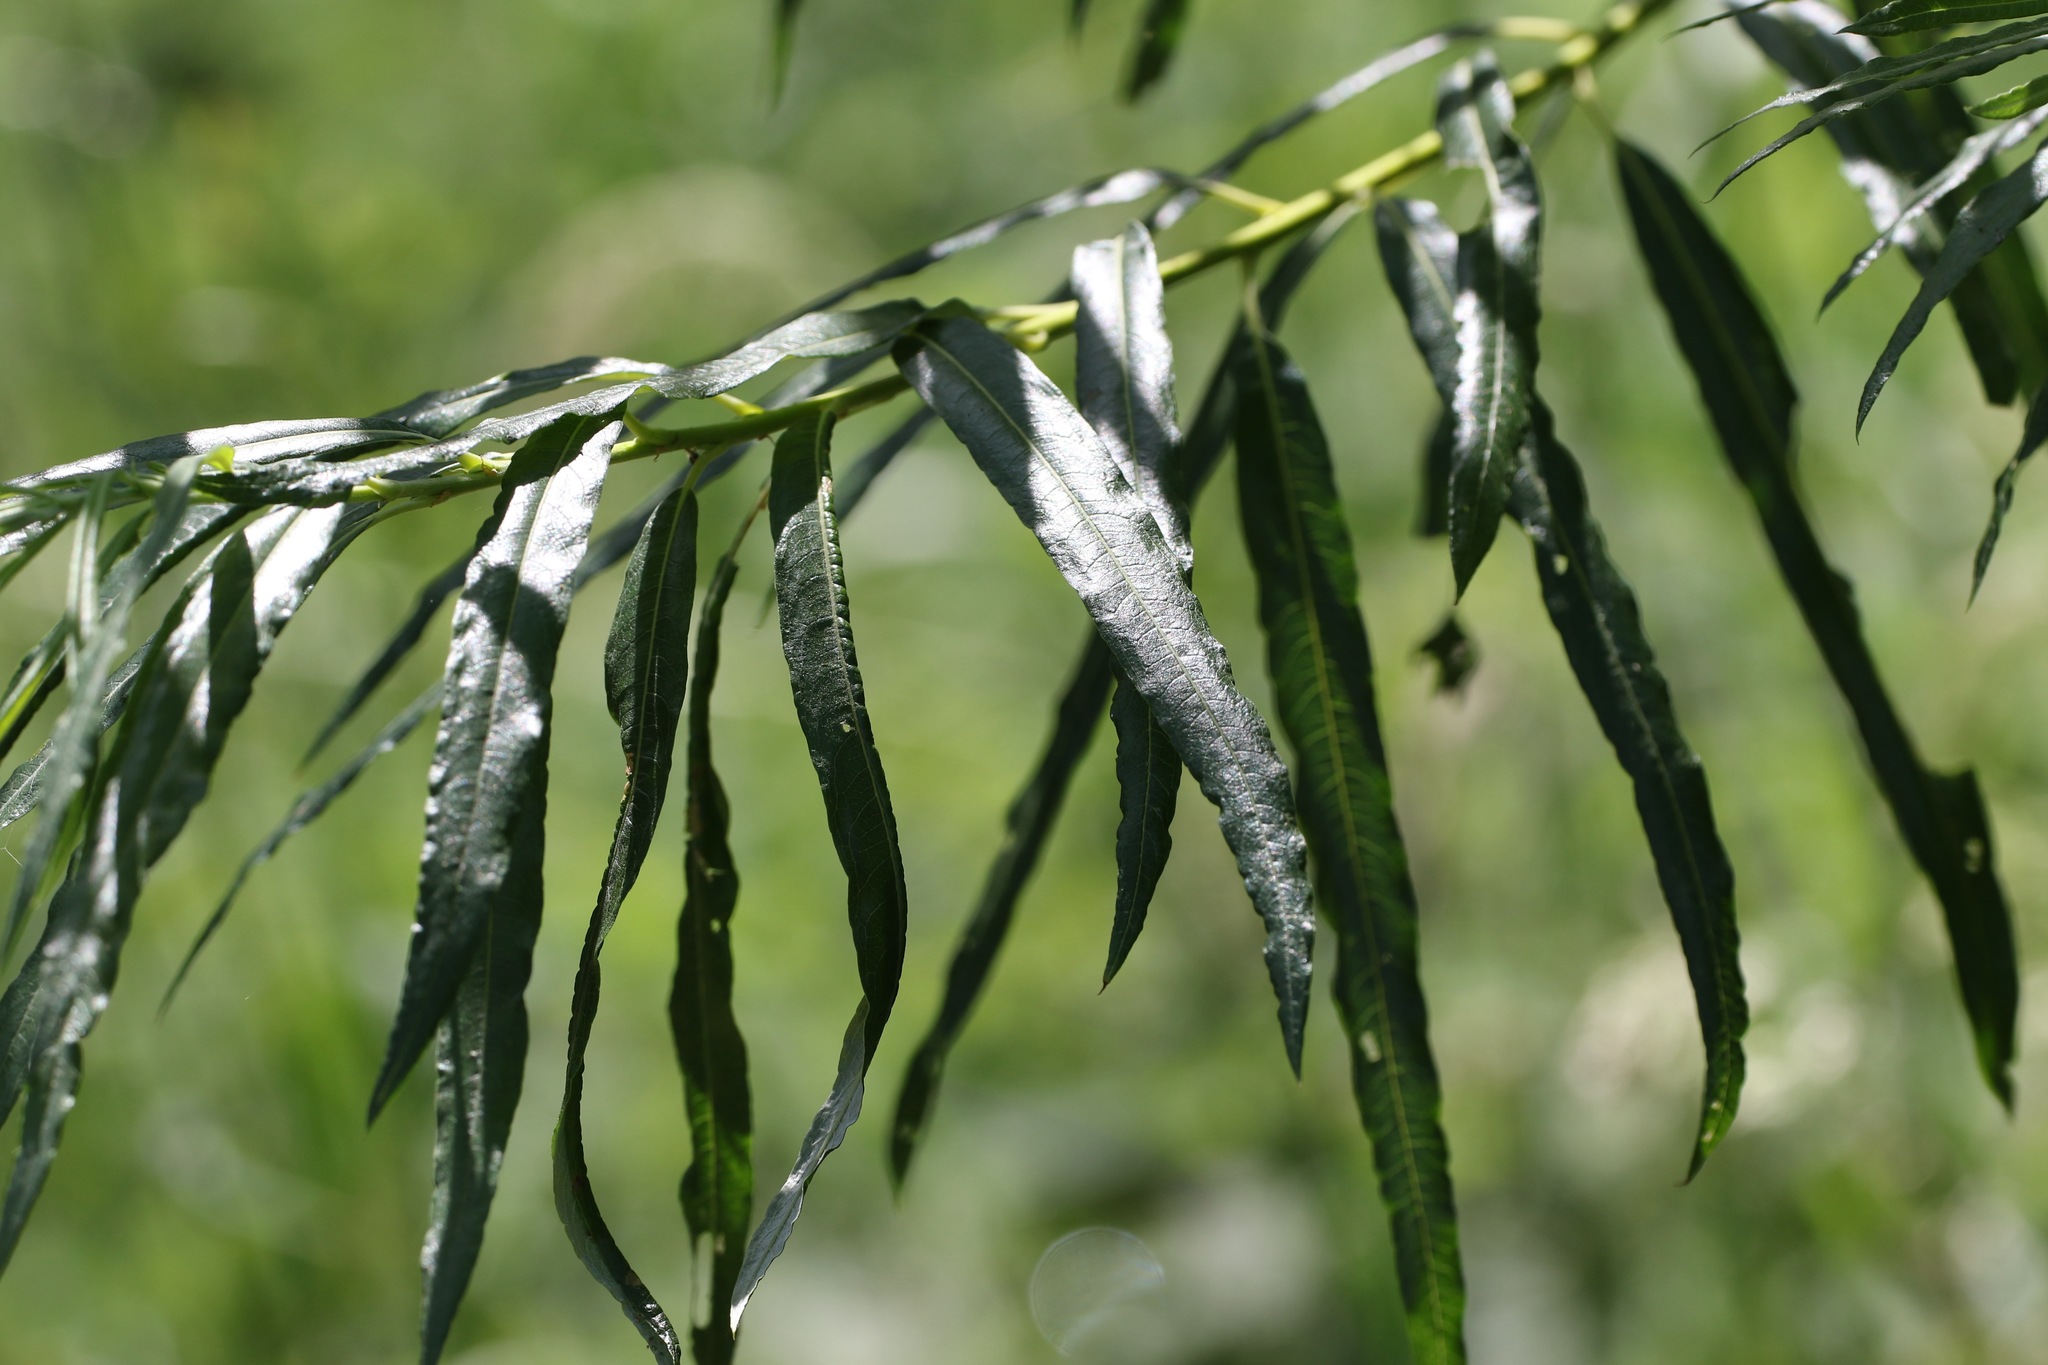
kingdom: Plantae
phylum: Tracheophyta
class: Magnoliopsida
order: Malpighiales
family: Salicaceae
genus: Salix
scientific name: Salix viminalis
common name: Osier
